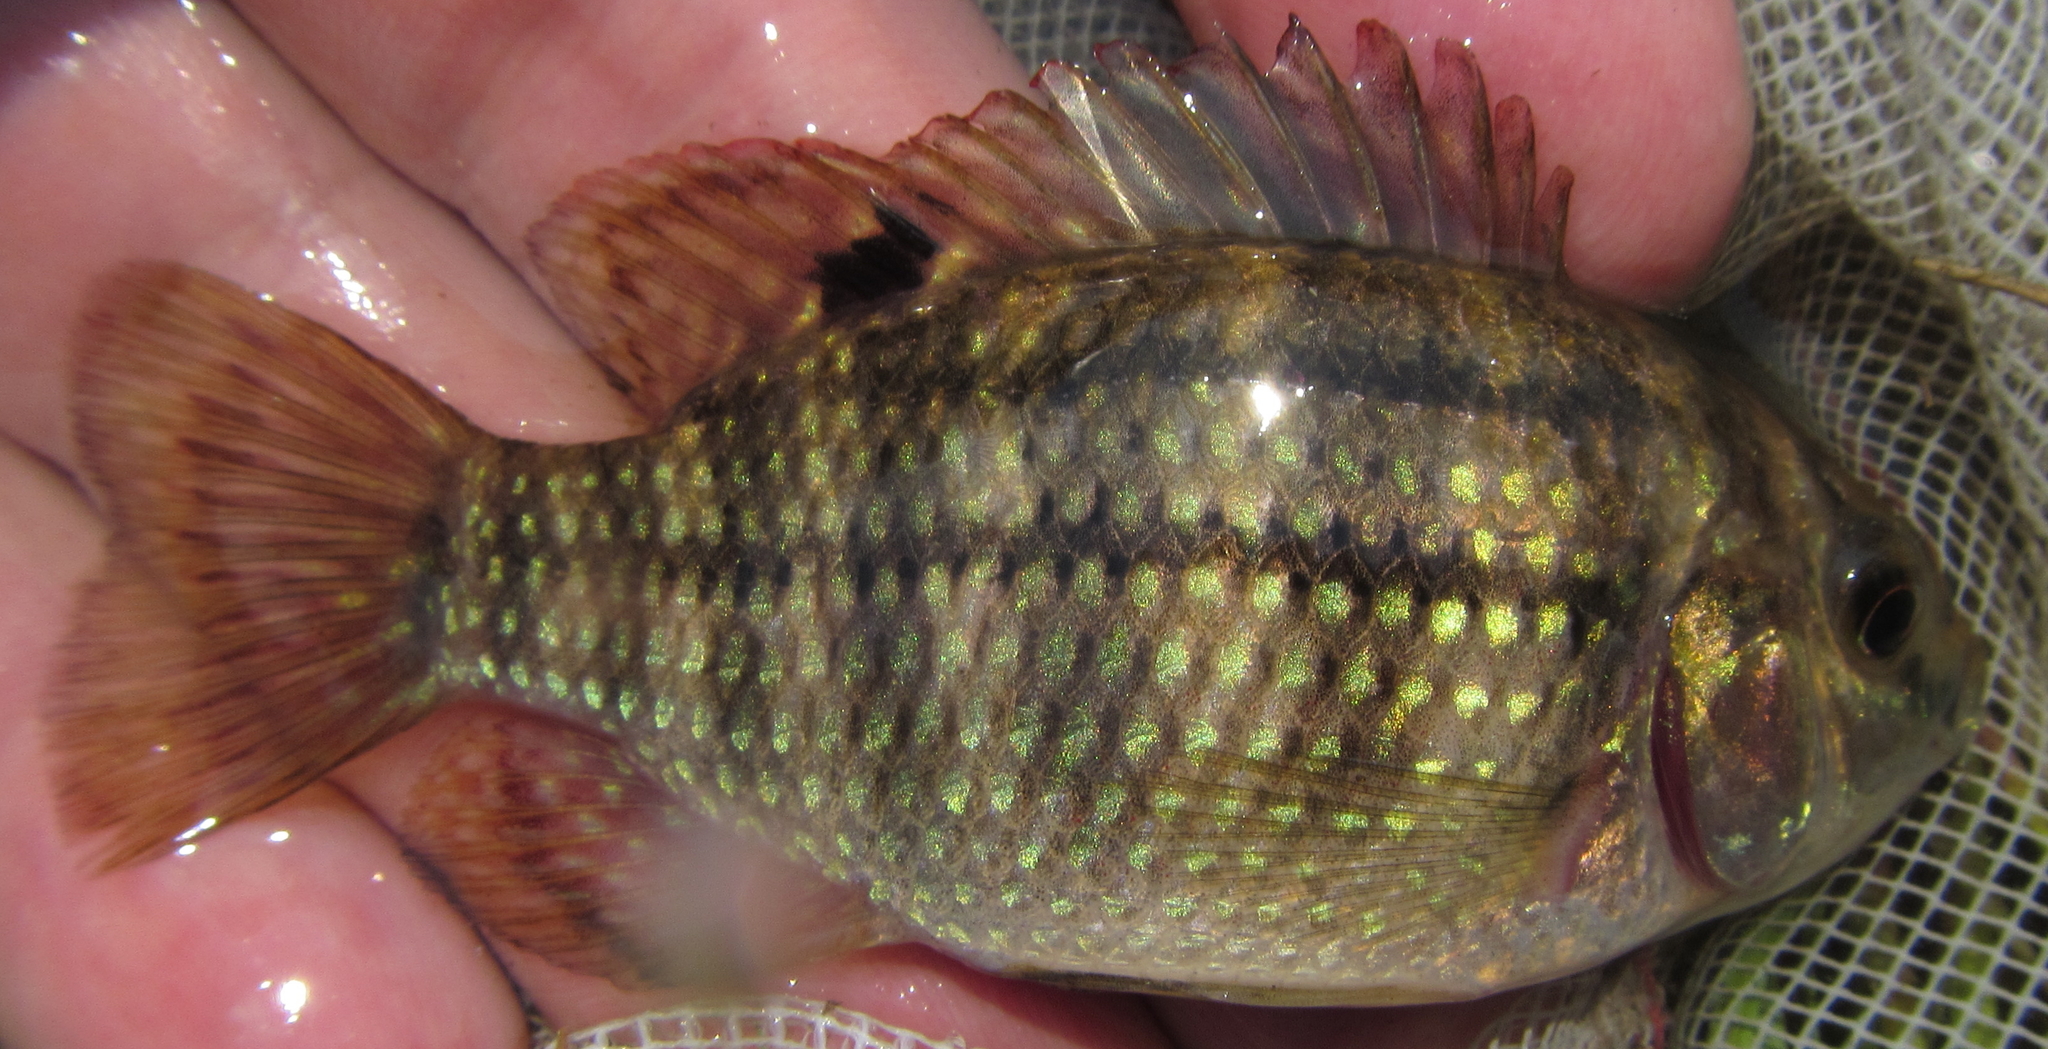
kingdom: Animalia
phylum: Chordata
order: Perciformes
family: Cichlidae
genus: Tilapia
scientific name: Tilapia sparrmanii
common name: Banded tilapia
